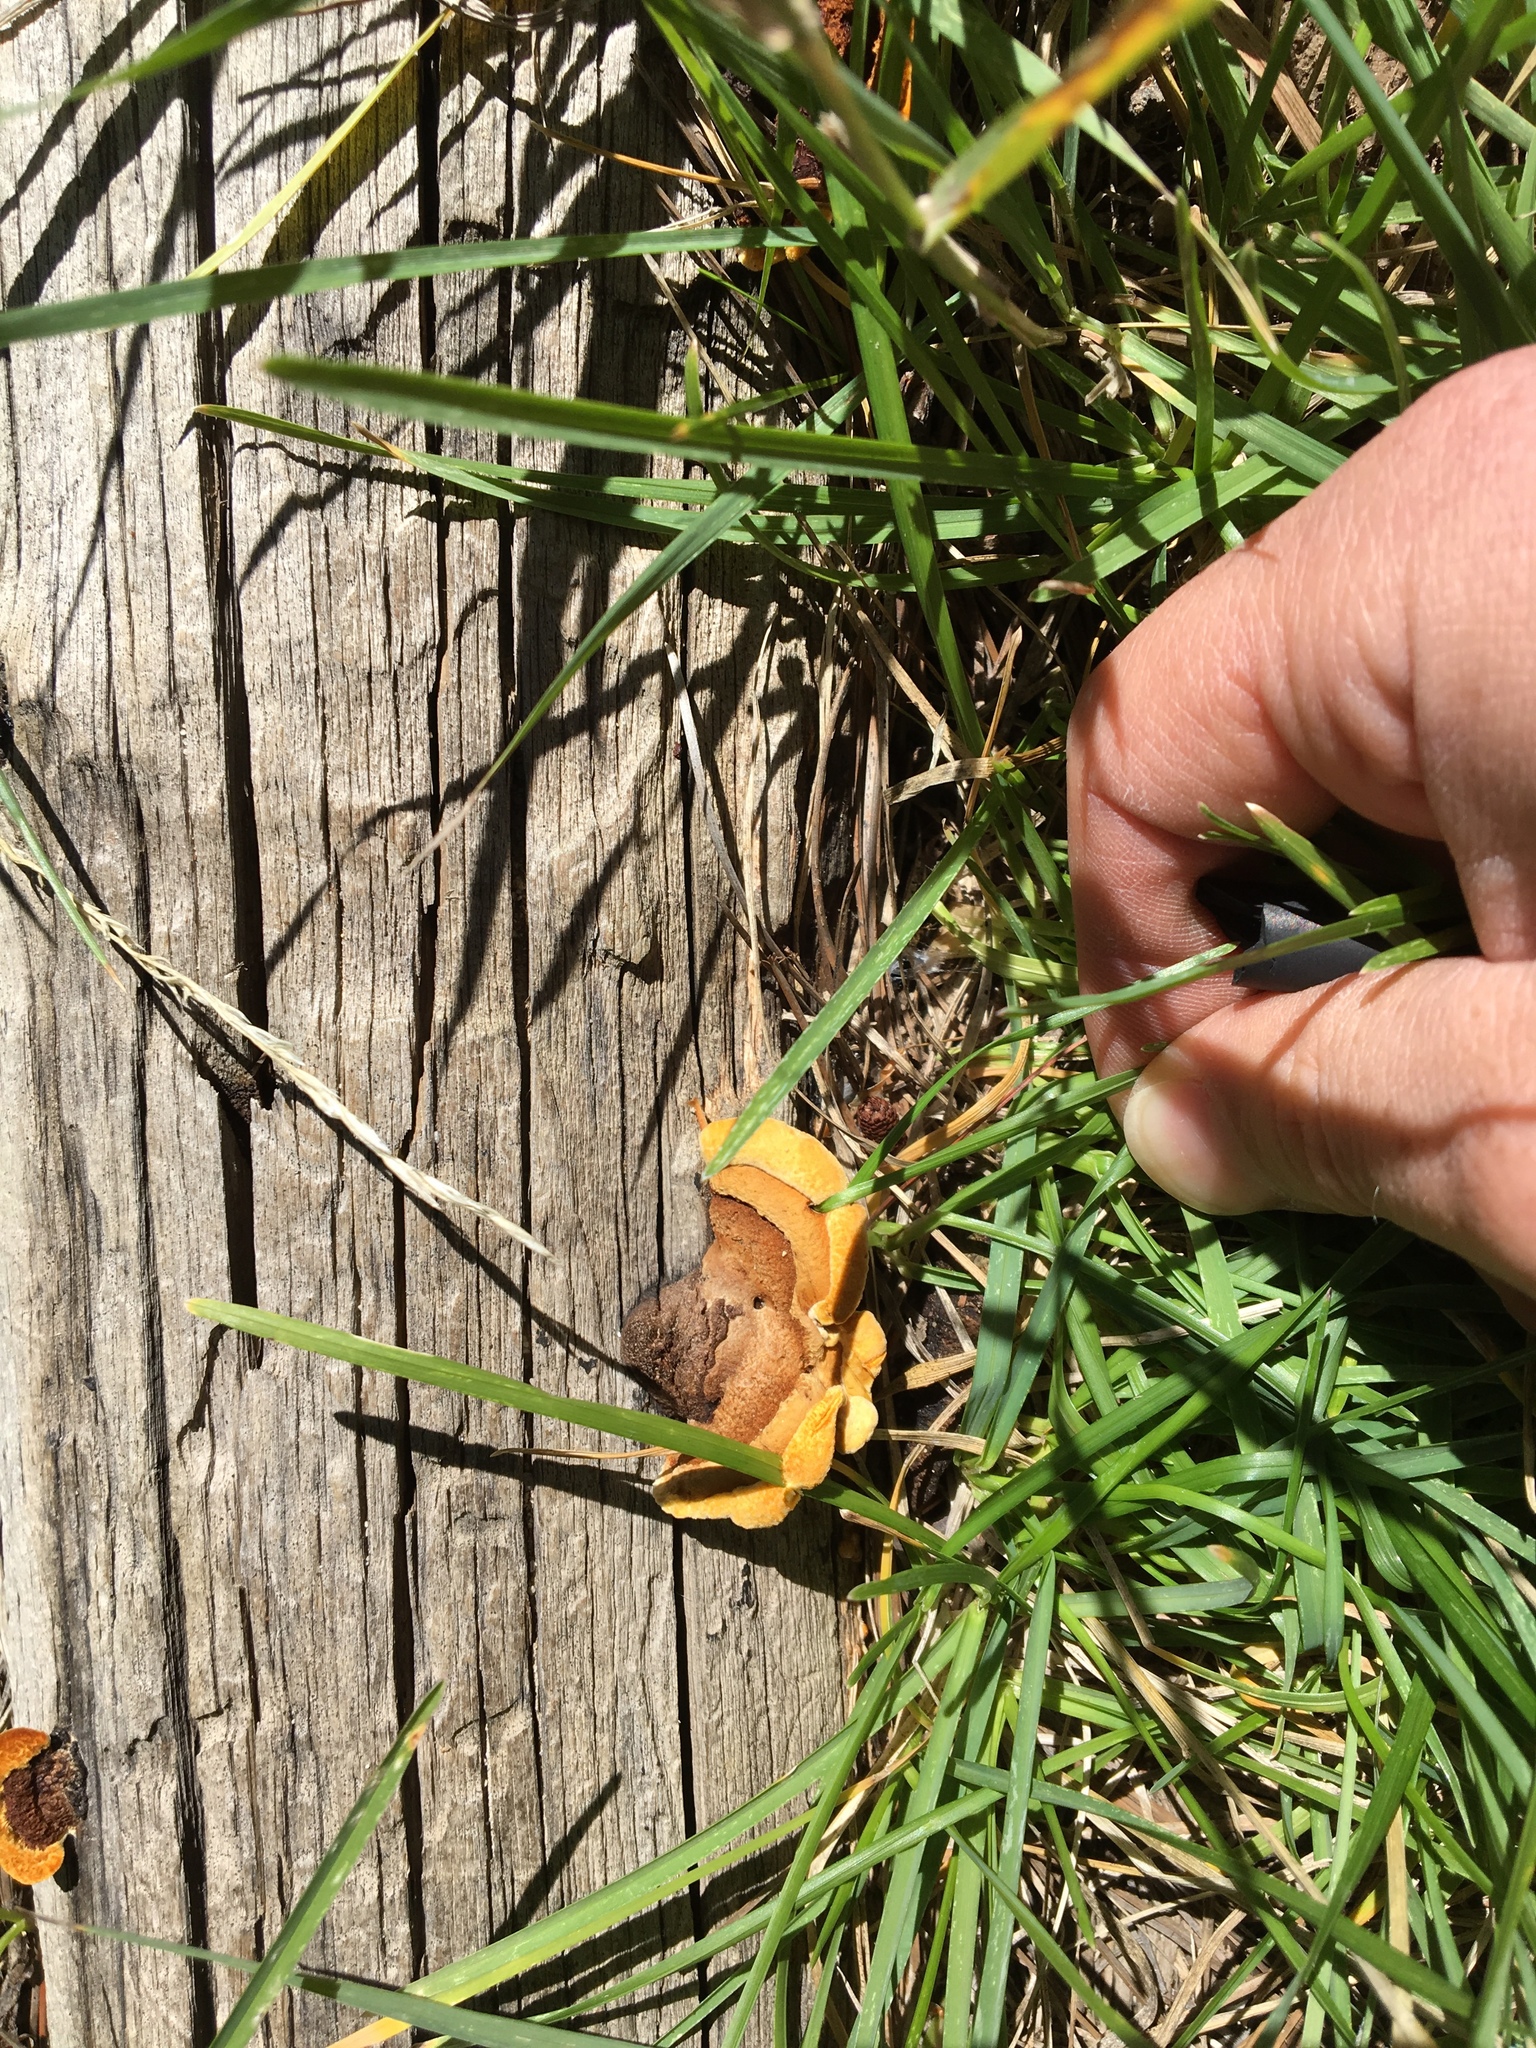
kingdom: Fungi
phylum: Basidiomycota
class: Agaricomycetes
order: Gloeophyllales
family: Gloeophyllaceae
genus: Gloeophyllum
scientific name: Gloeophyllum sepiarium
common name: Conifer mazegill
